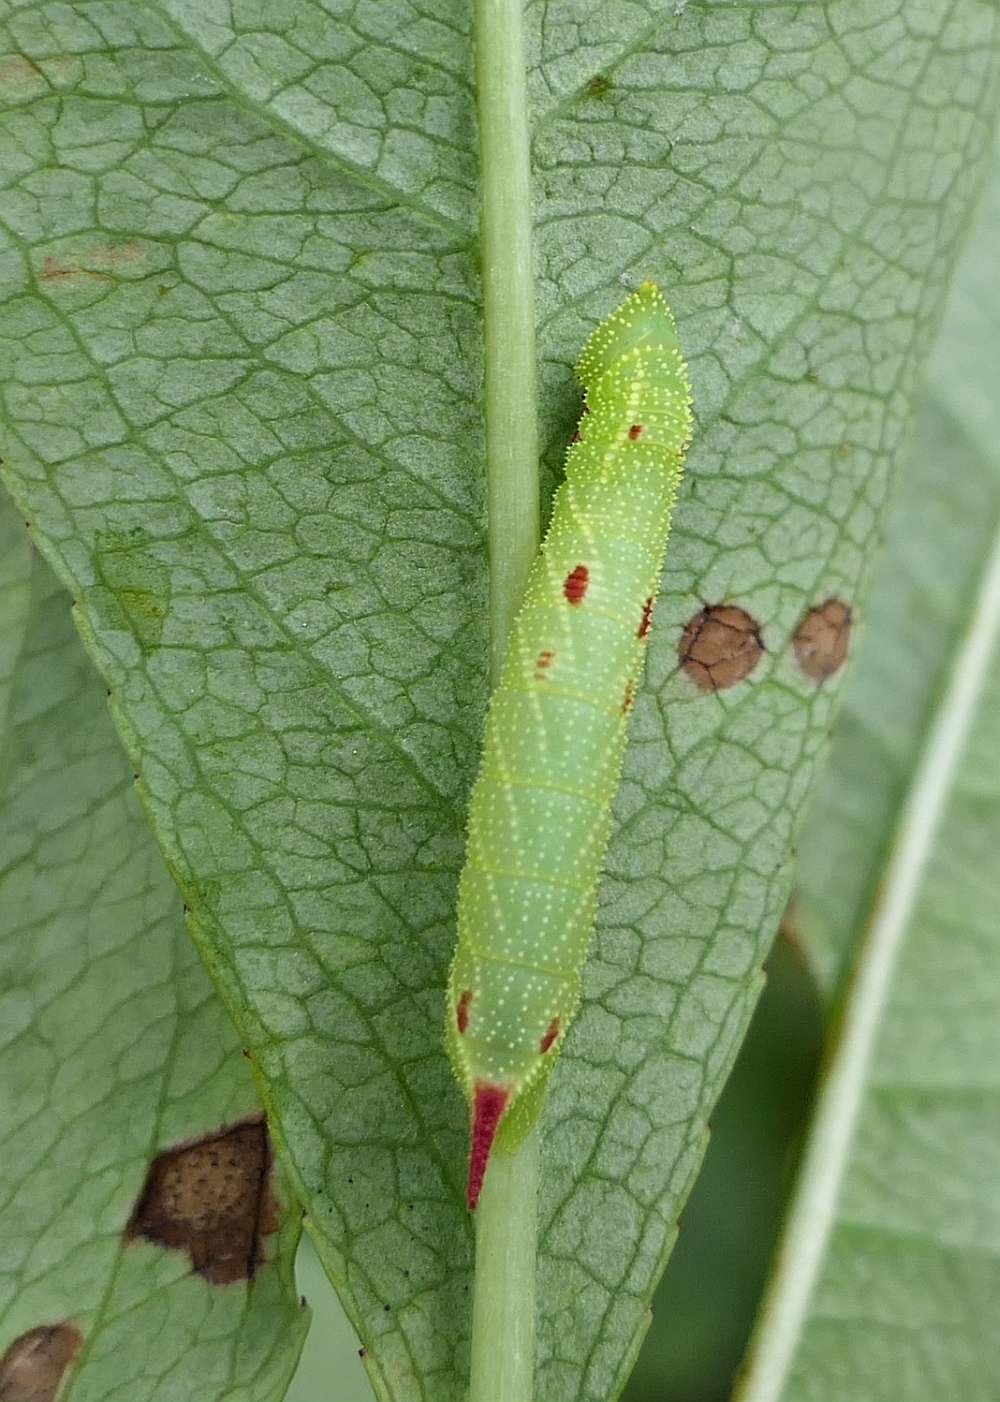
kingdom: Animalia
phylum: Arthropoda
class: Insecta
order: Lepidoptera
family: Sphingidae
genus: Paonias
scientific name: Paonias myops
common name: Small-eyed sphinx
